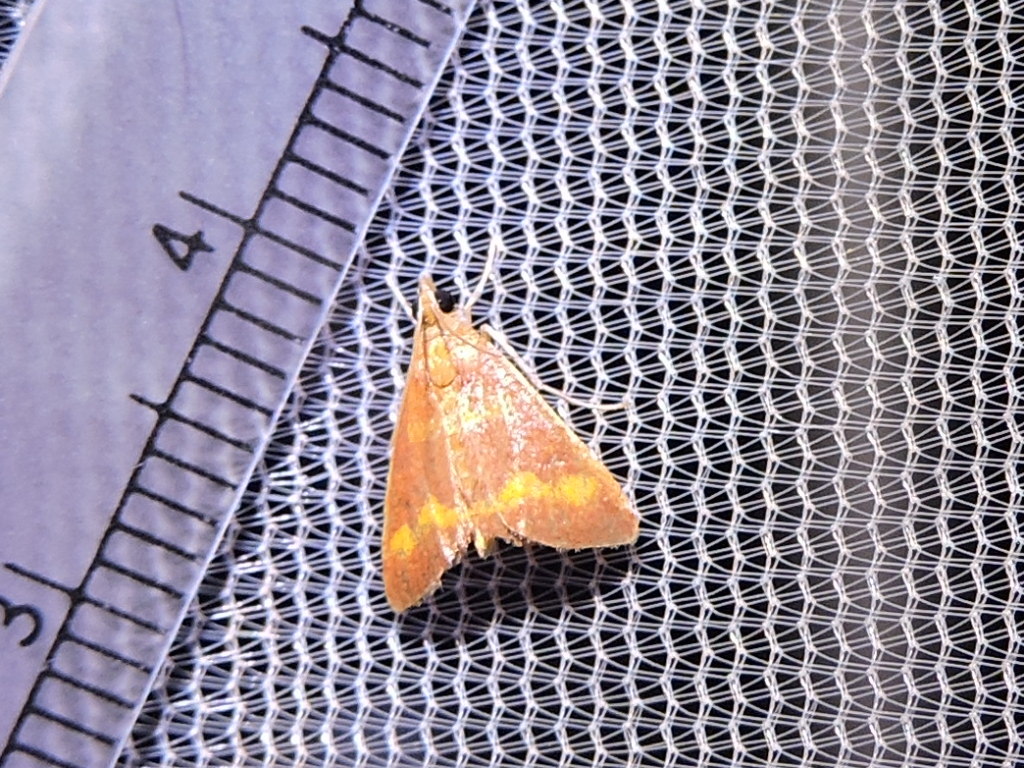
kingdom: Animalia
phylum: Arthropoda
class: Insecta
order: Lepidoptera
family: Crambidae
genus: Pyrausta
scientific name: Pyrausta pseuderosnealis
